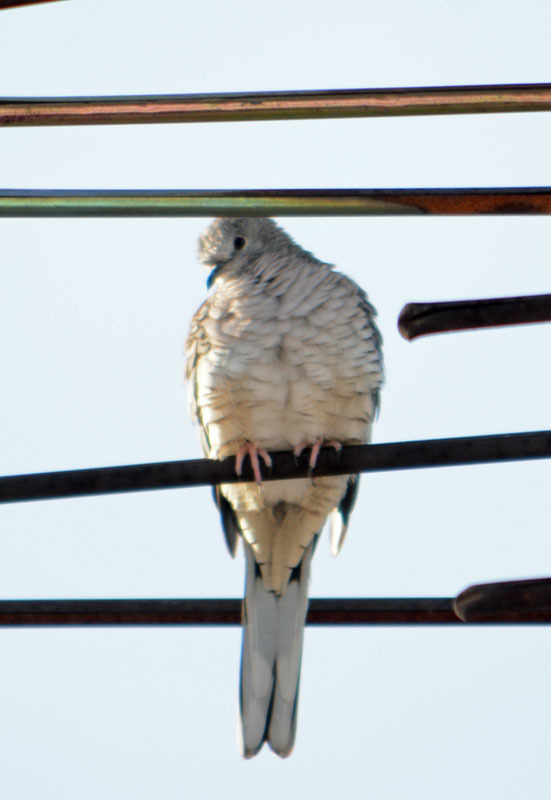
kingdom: Animalia
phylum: Chordata
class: Aves
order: Columbiformes
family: Columbidae
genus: Columbina
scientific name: Columbina inca
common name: Inca dove
